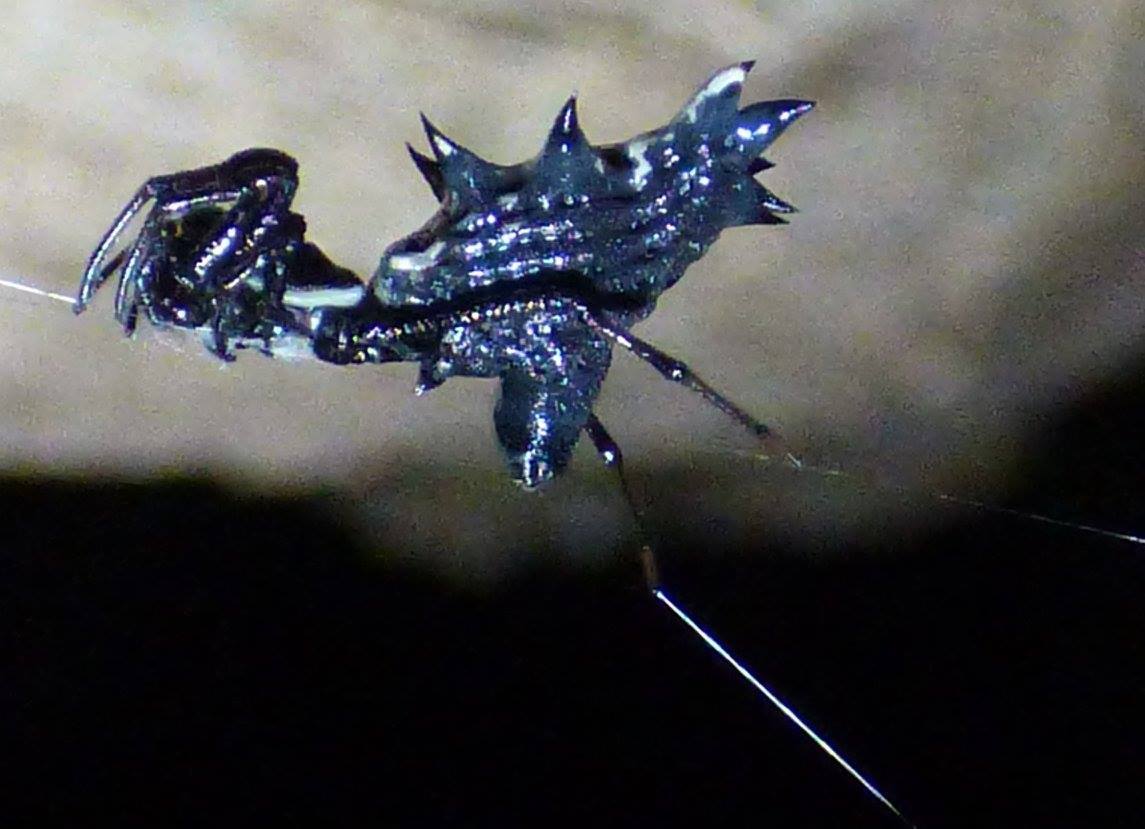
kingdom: Animalia
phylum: Arthropoda
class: Arachnida
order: Araneae
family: Araneidae
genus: Micrathena
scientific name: Micrathena gracilis
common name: Orb weavers
